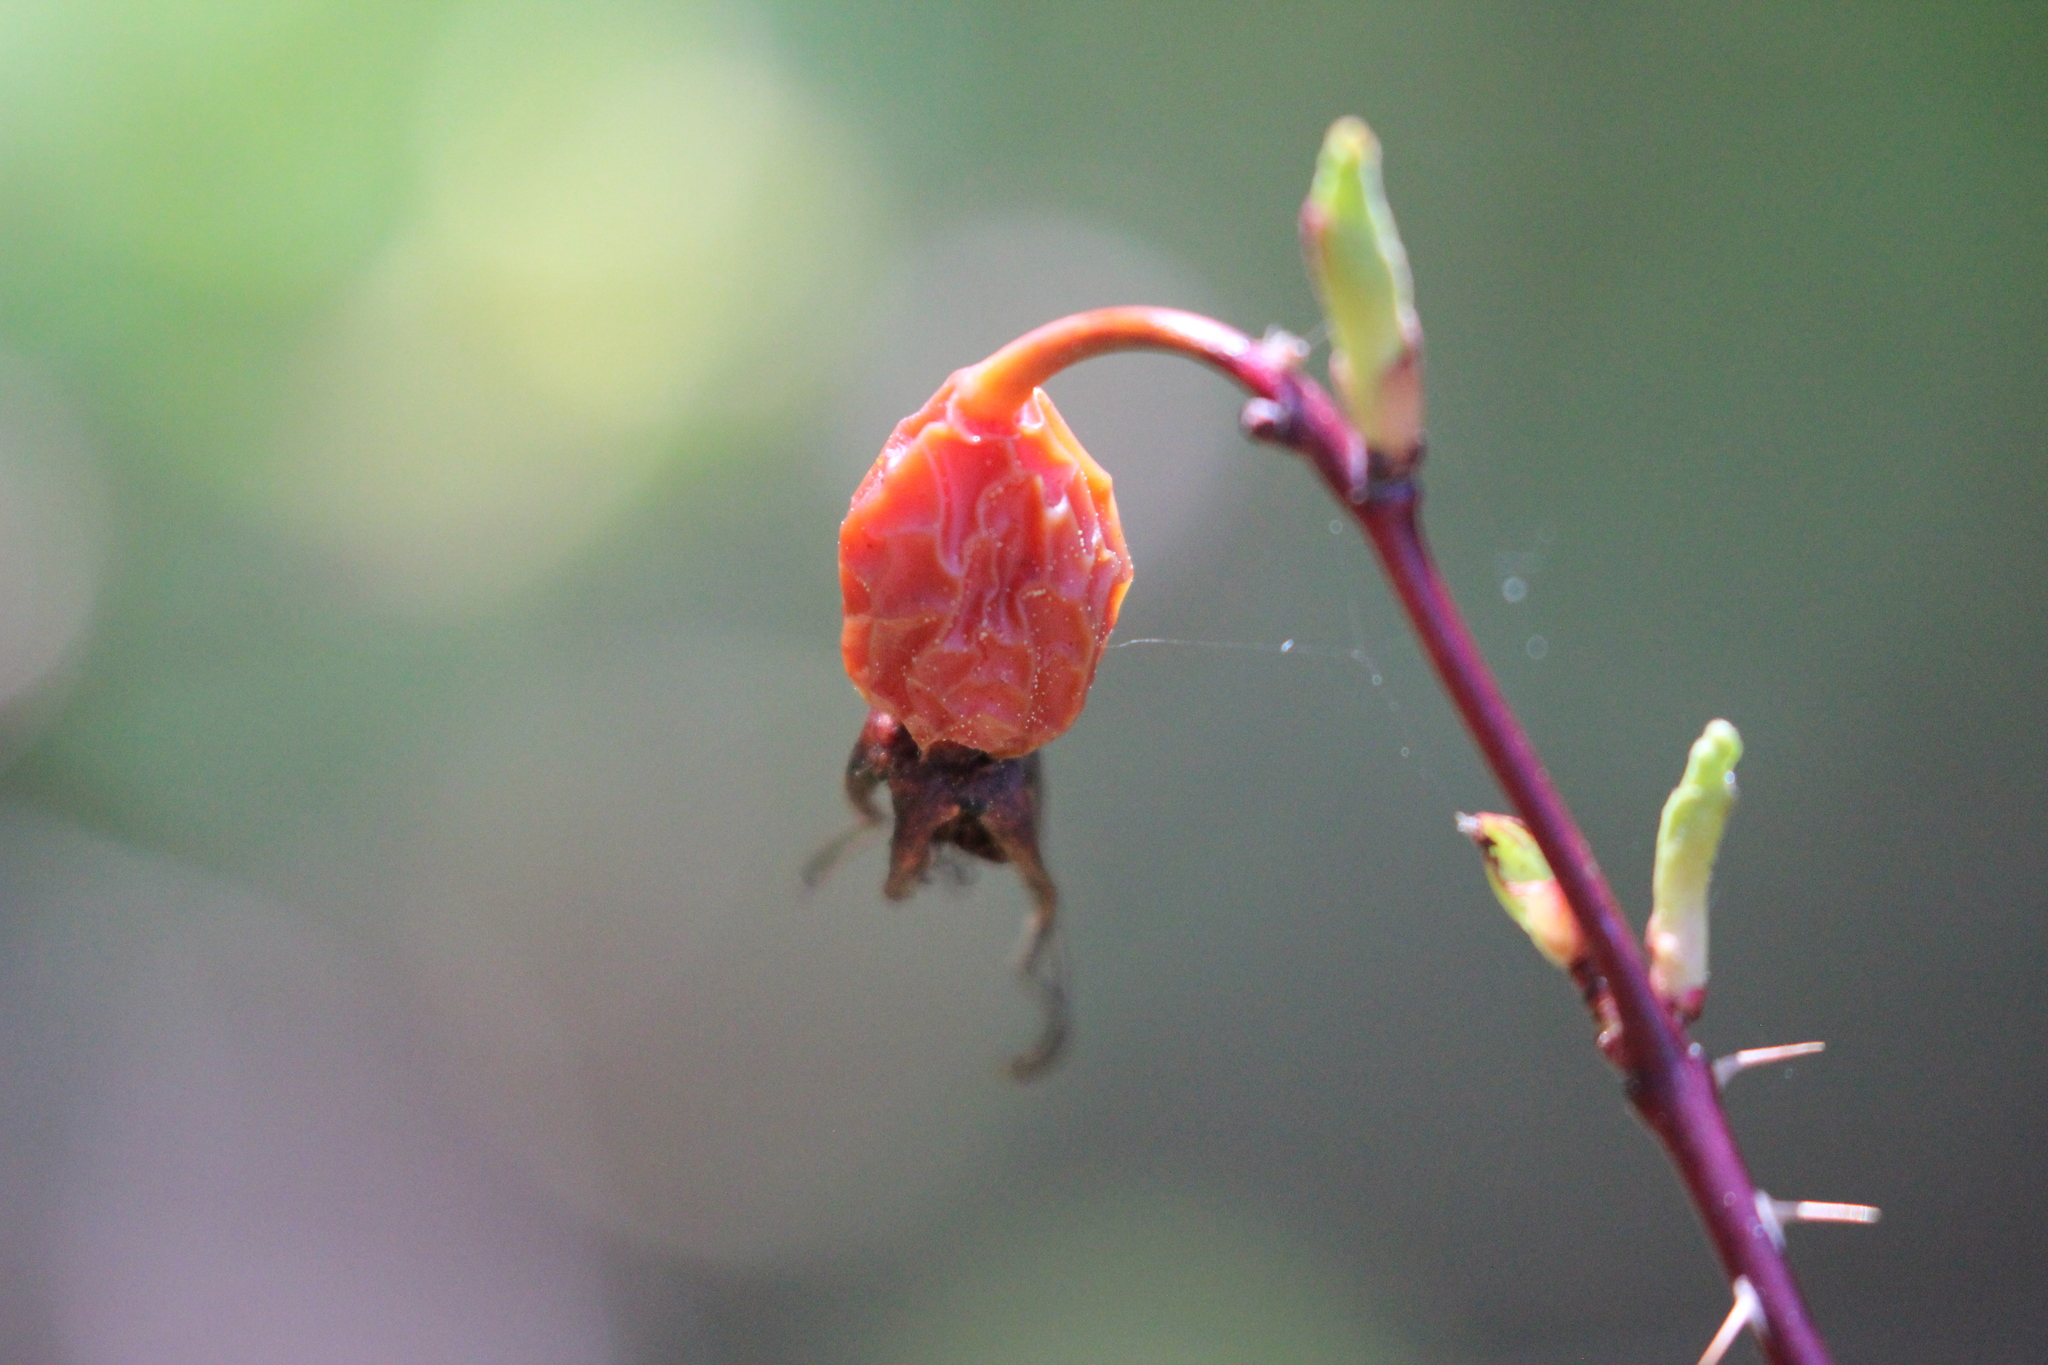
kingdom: Plantae
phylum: Tracheophyta
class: Magnoliopsida
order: Rosales
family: Rosaceae
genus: Rosa
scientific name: Rosa acicularis
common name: Prickly rose
